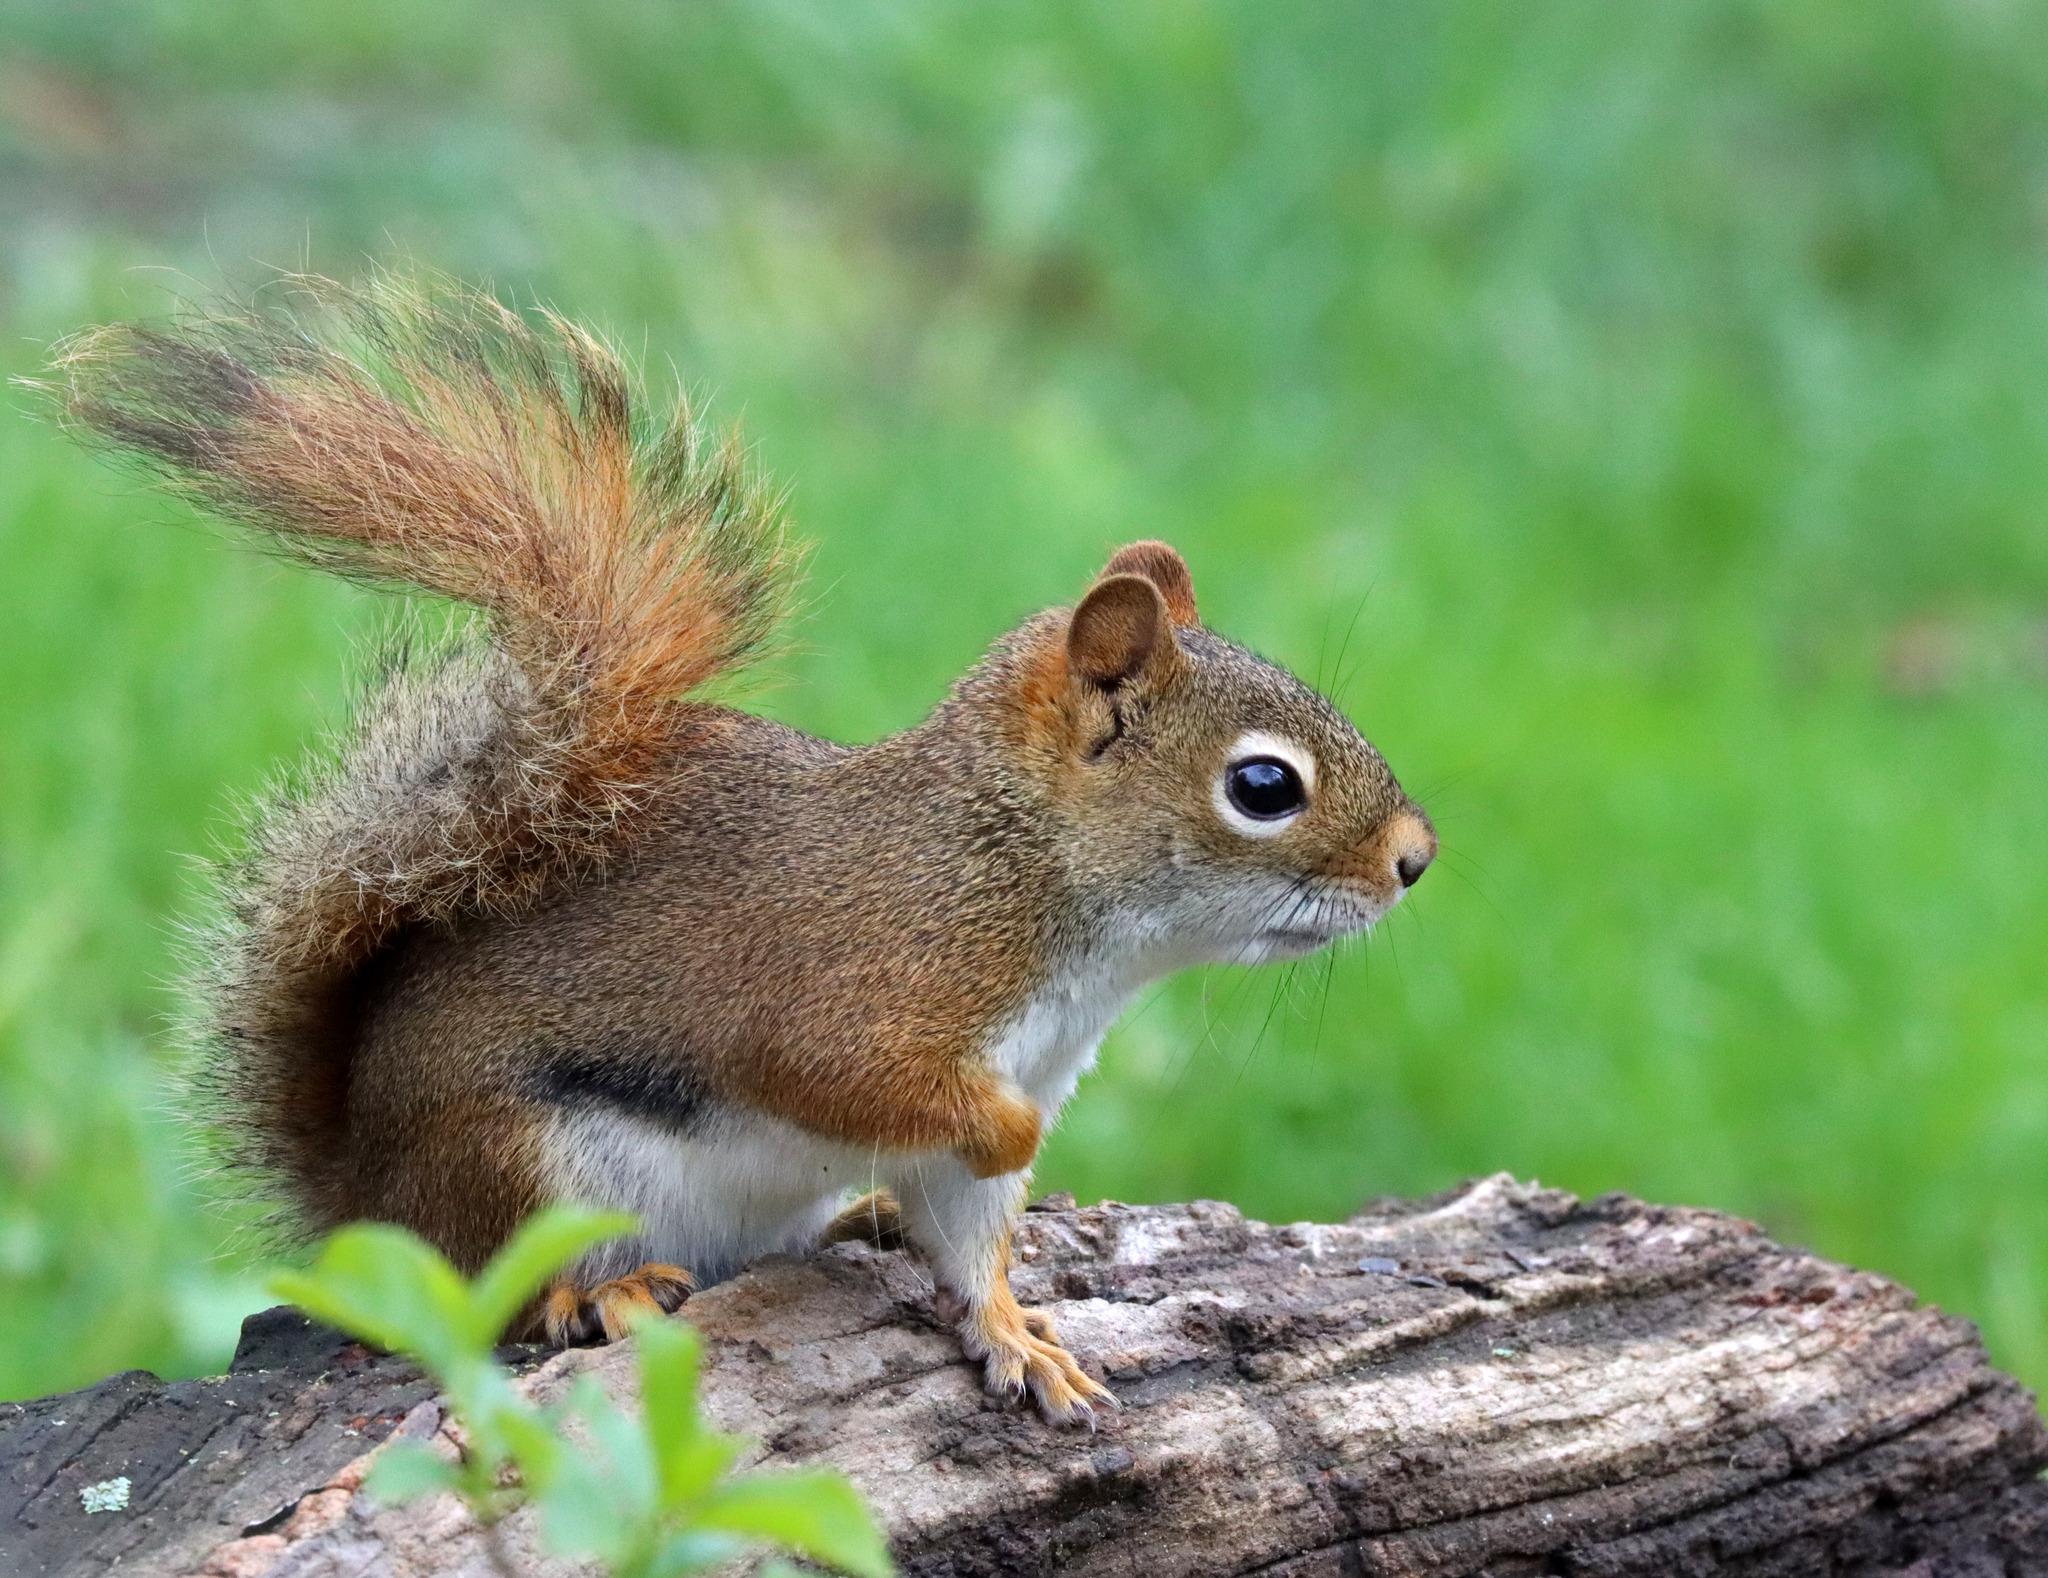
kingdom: Animalia
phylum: Chordata
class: Mammalia
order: Rodentia
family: Sciuridae
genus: Tamiasciurus
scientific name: Tamiasciurus hudsonicus
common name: Red squirrel
